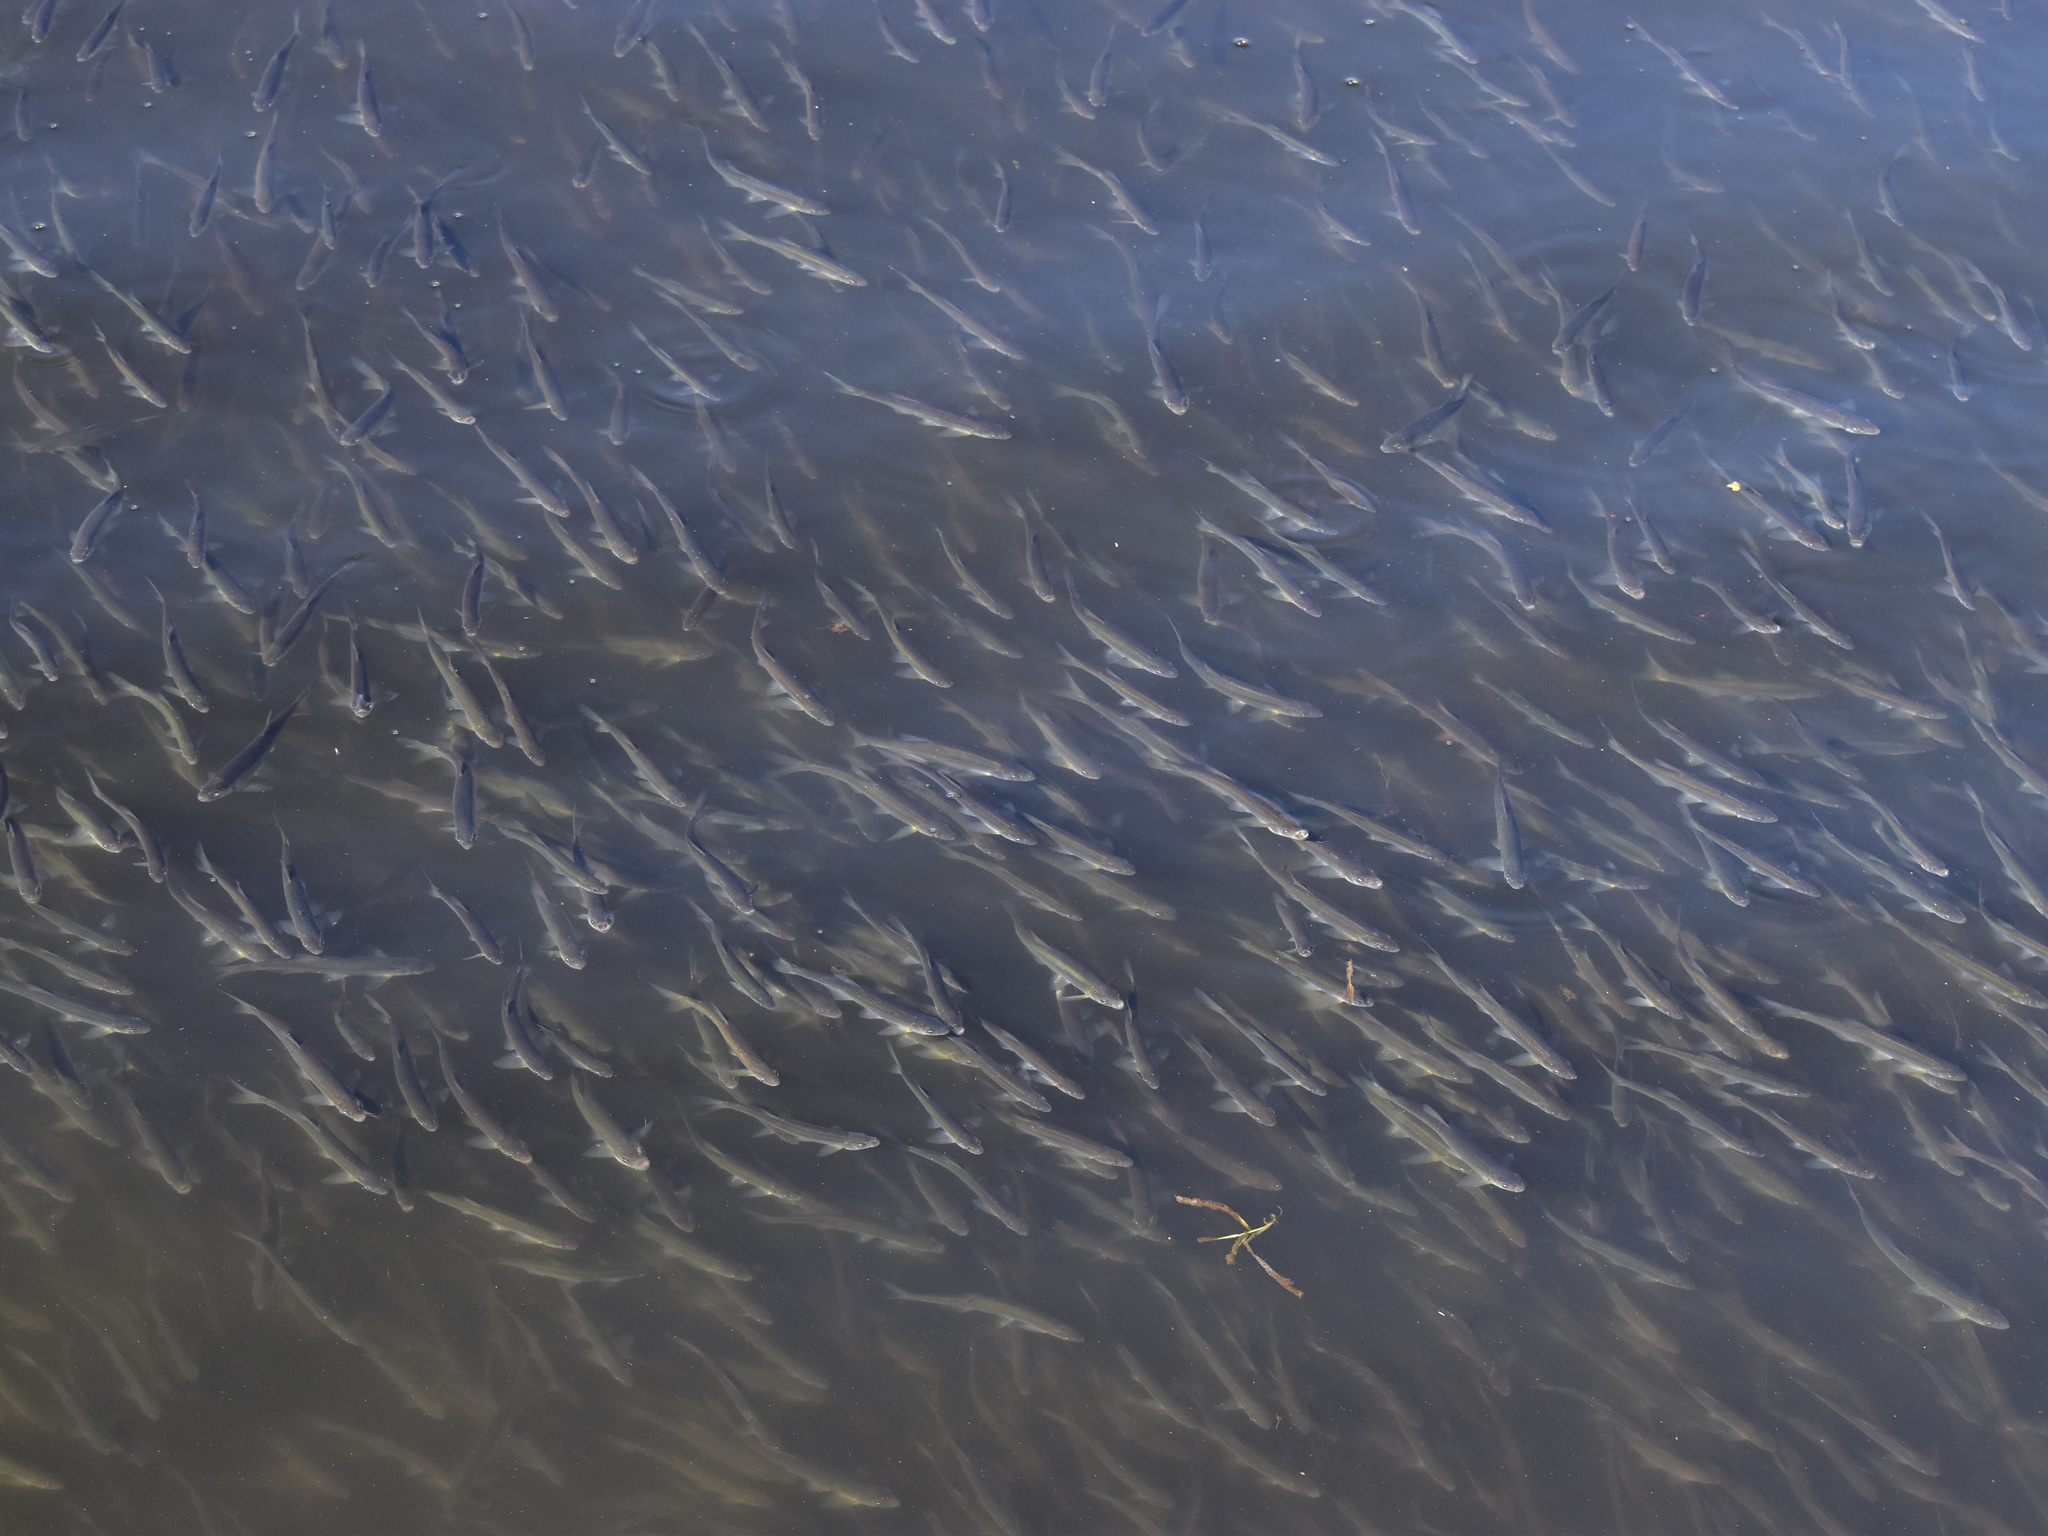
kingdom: Animalia
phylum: Chordata
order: Cypriniformes
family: Cyprinidae
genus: Alburnus
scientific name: Alburnus alburnus
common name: Bleak
